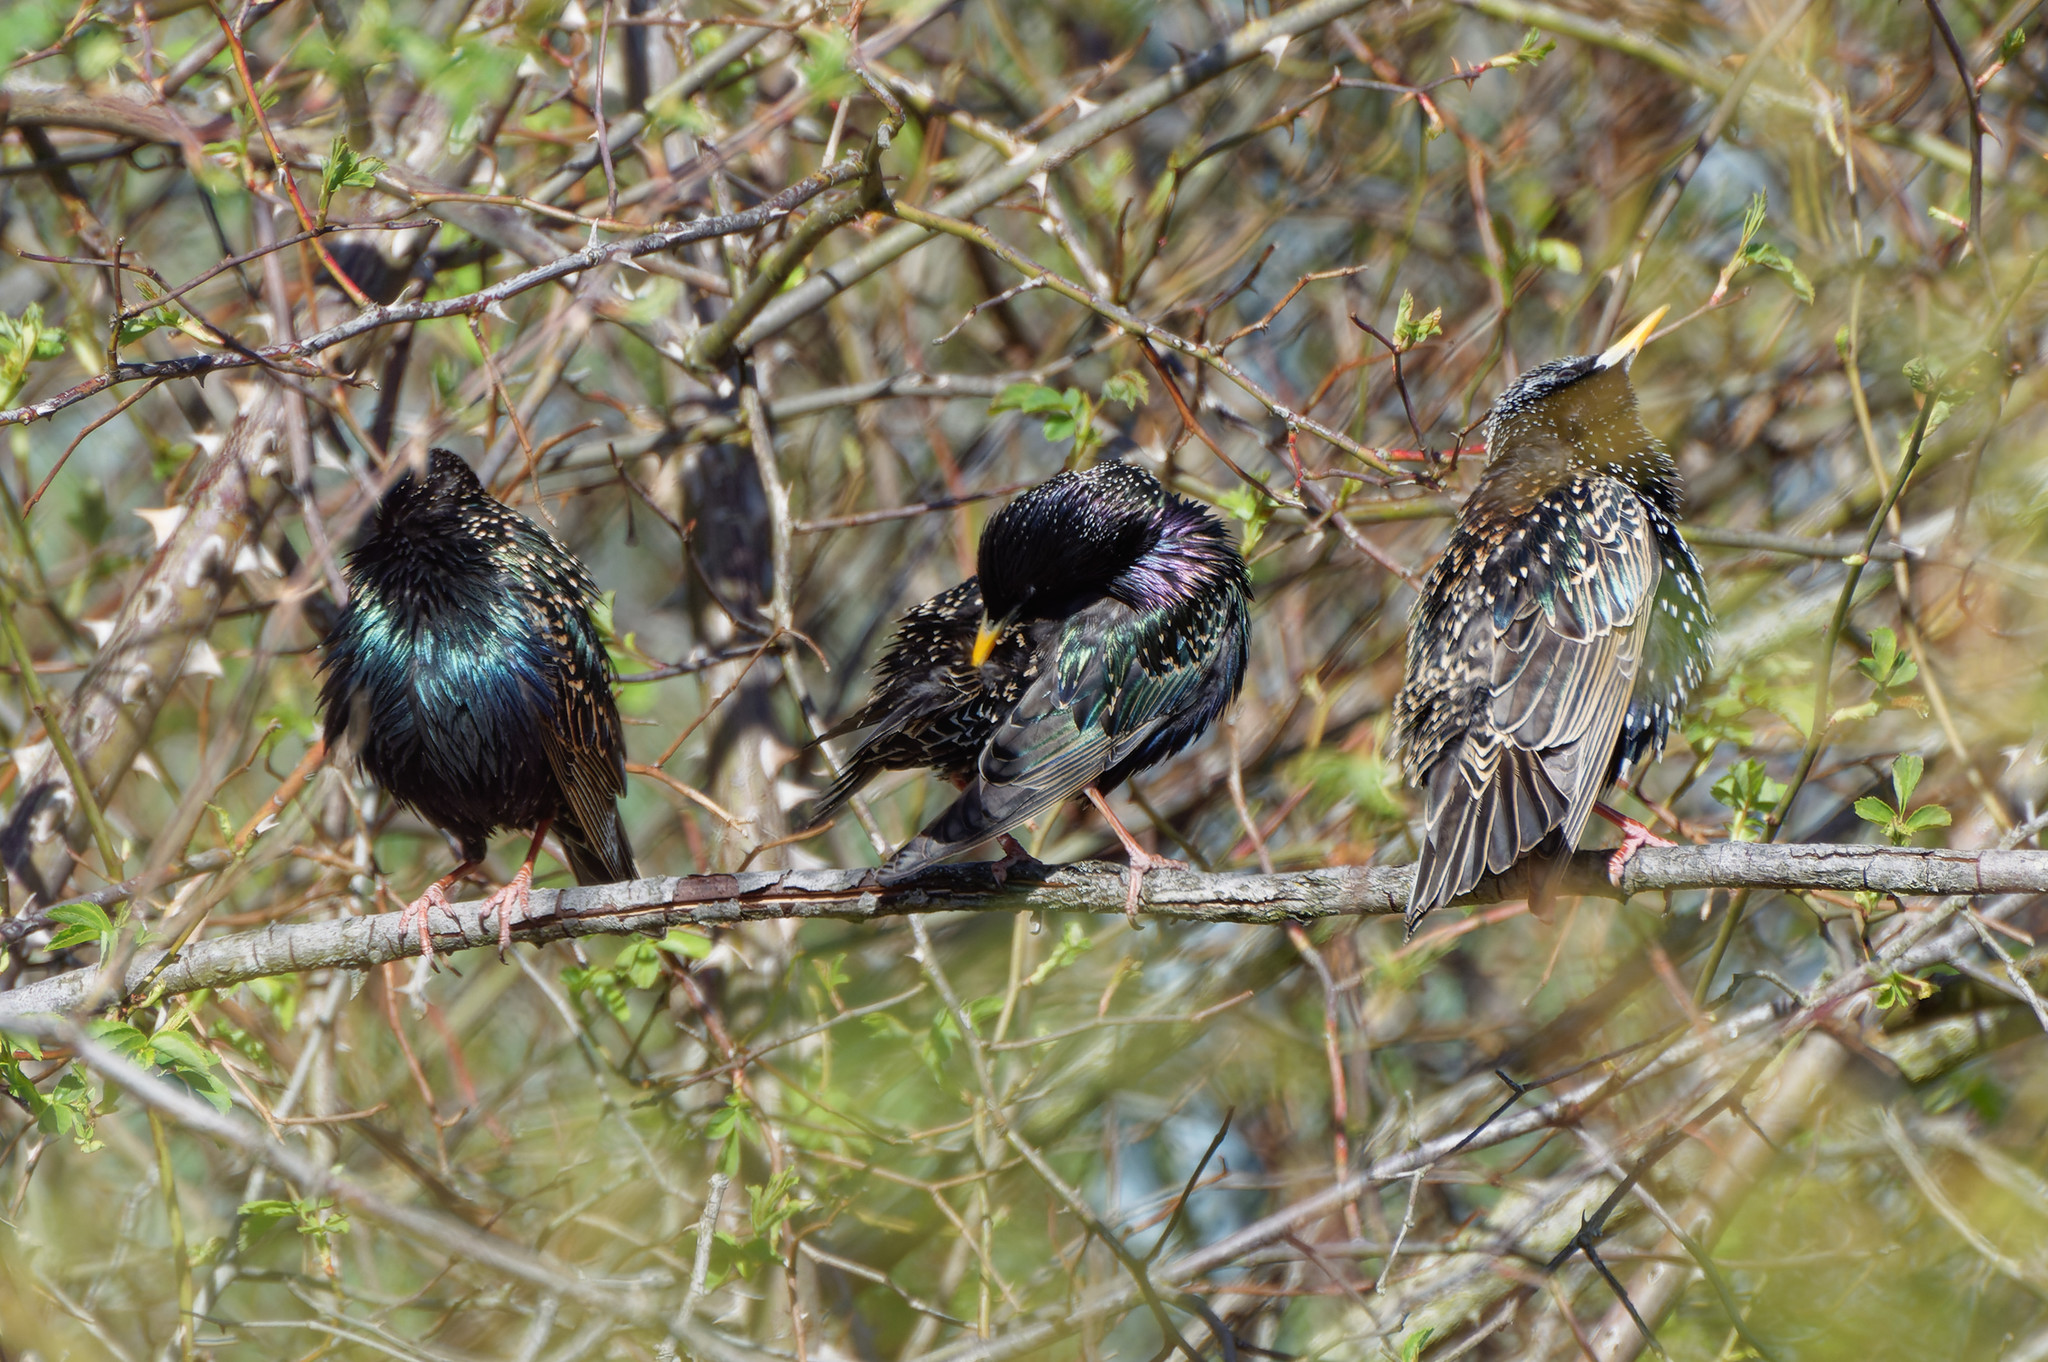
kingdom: Animalia
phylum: Chordata
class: Aves
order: Passeriformes
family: Sturnidae
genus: Sturnus
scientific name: Sturnus vulgaris
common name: Common starling
